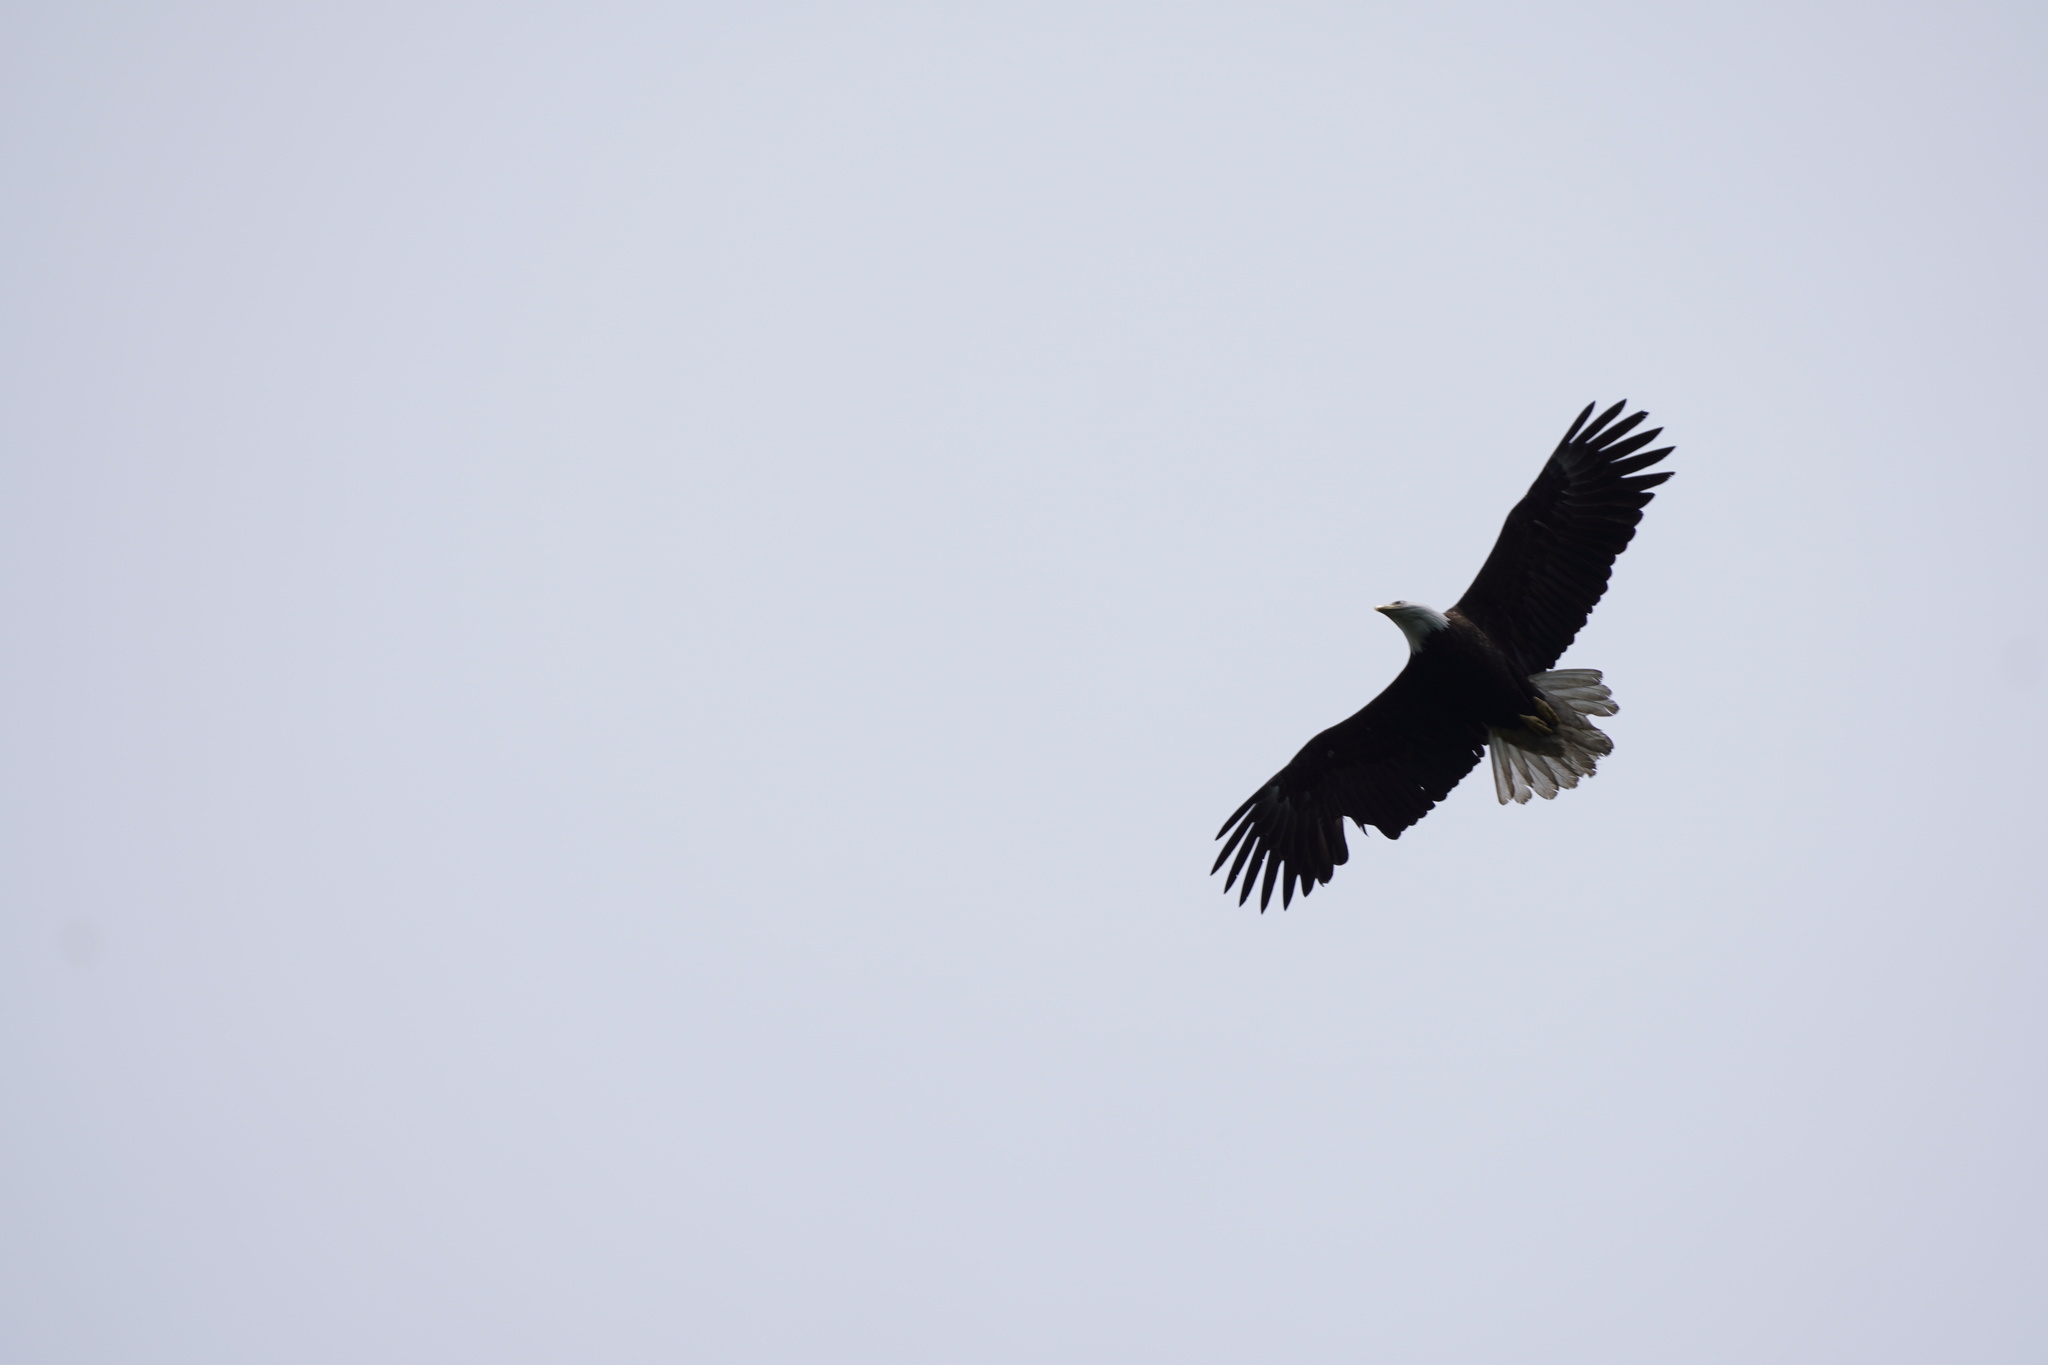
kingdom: Animalia
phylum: Chordata
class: Aves
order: Accipitriformes
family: Accipitridae
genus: Haliaeetus
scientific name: Haliaeetus leucocephalus
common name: Bald eagle
